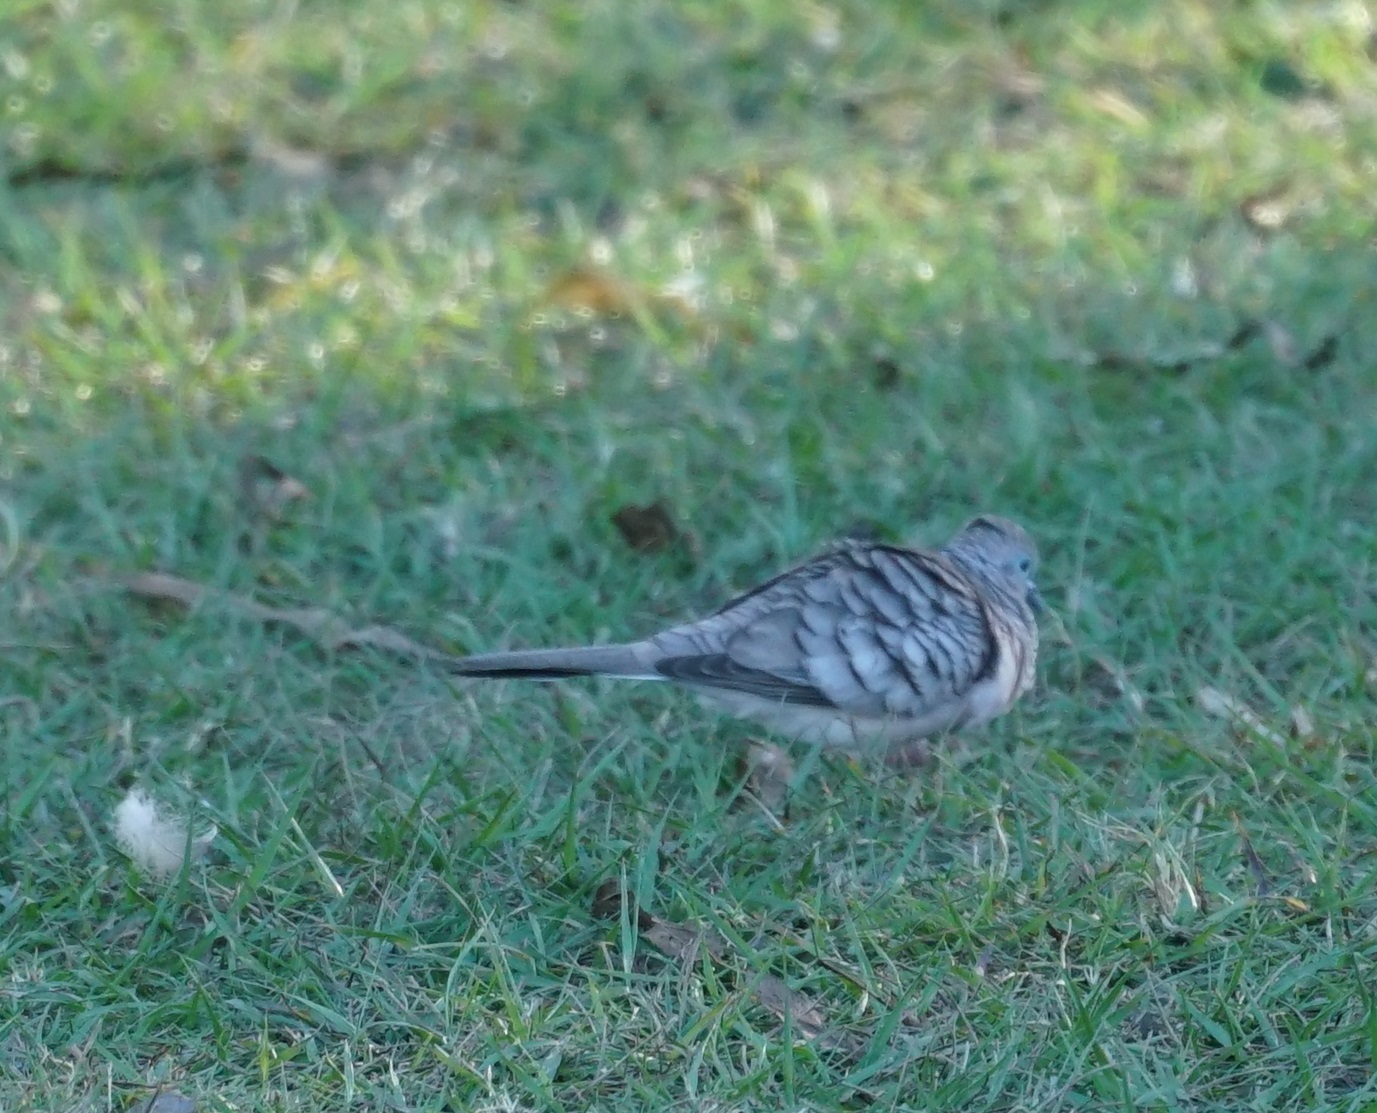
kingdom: Animalia
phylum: Chordata
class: Aves
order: Columbiformes
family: Columbidae
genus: Geopelia
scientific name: Geopelia placida
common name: Peaceful dove
